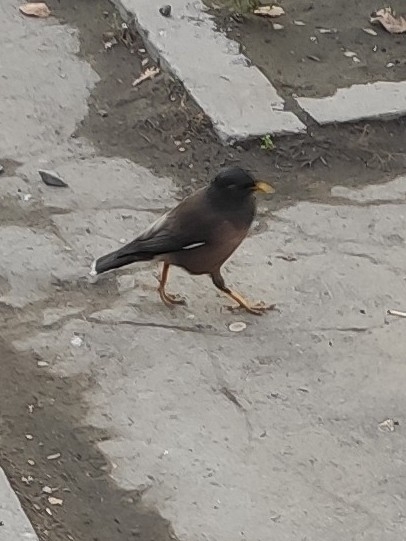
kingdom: Animalia
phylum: Chordata
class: Aves
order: Passeriformes
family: Sturnidae
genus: Acridotheres
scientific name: Acridotheres tristis
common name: Common myna
